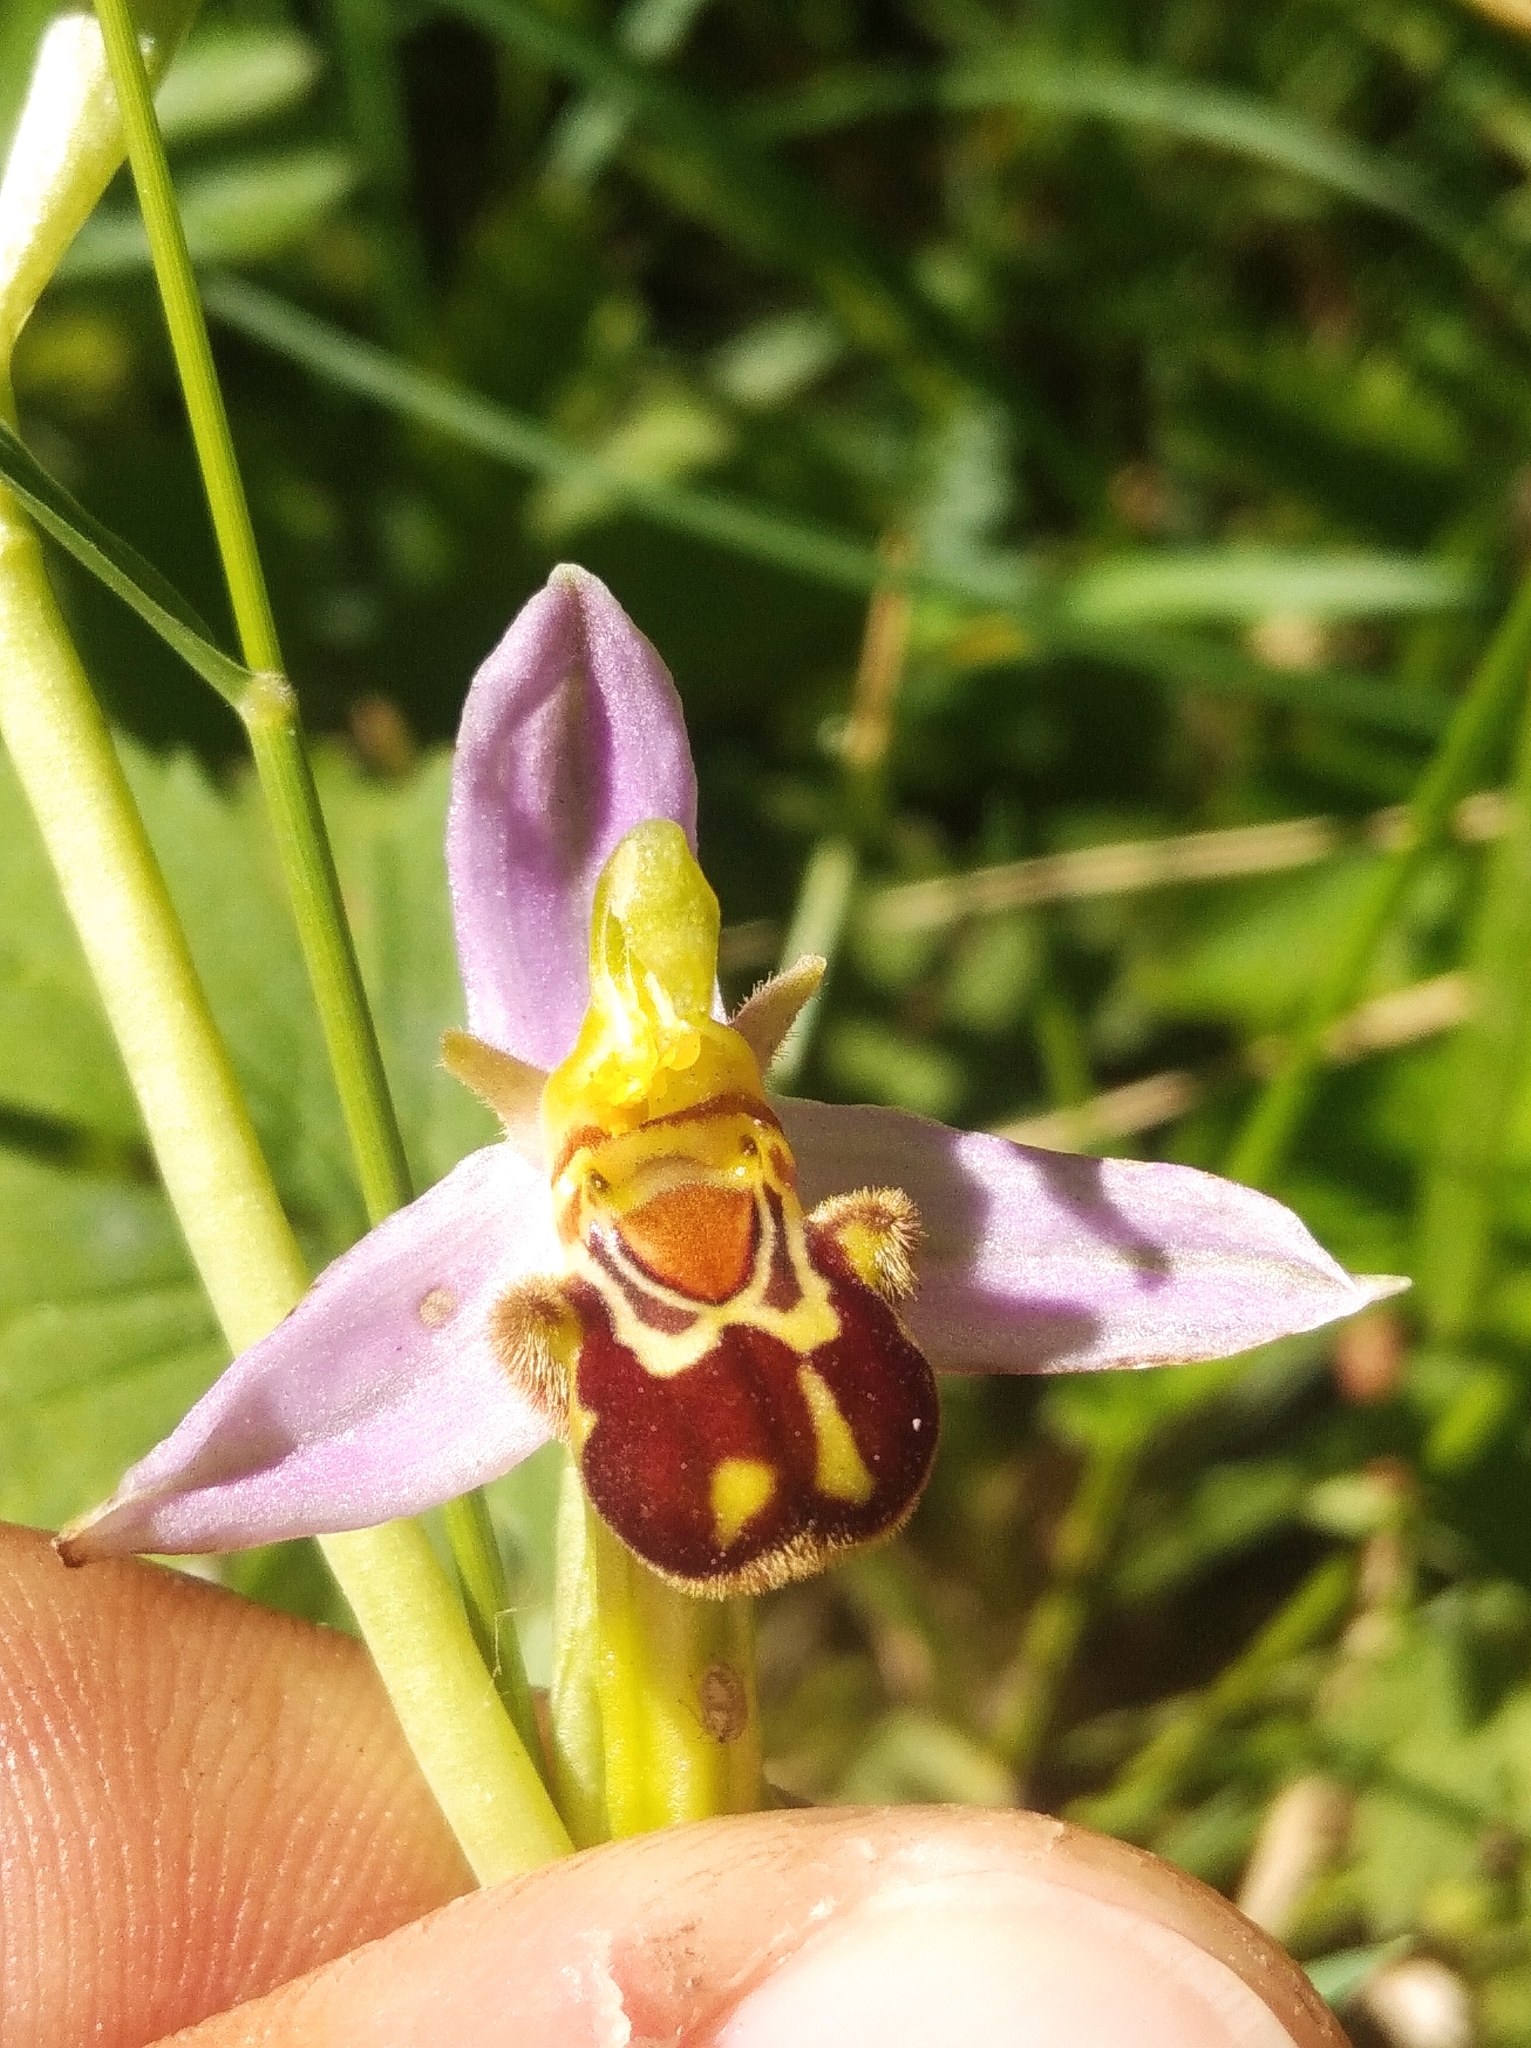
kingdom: Plantae
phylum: Tracheophyta
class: Liliopsida
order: Asparagales
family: Orchidaceae
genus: Ophrys
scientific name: Ophrys apifera
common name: Bee orchid
